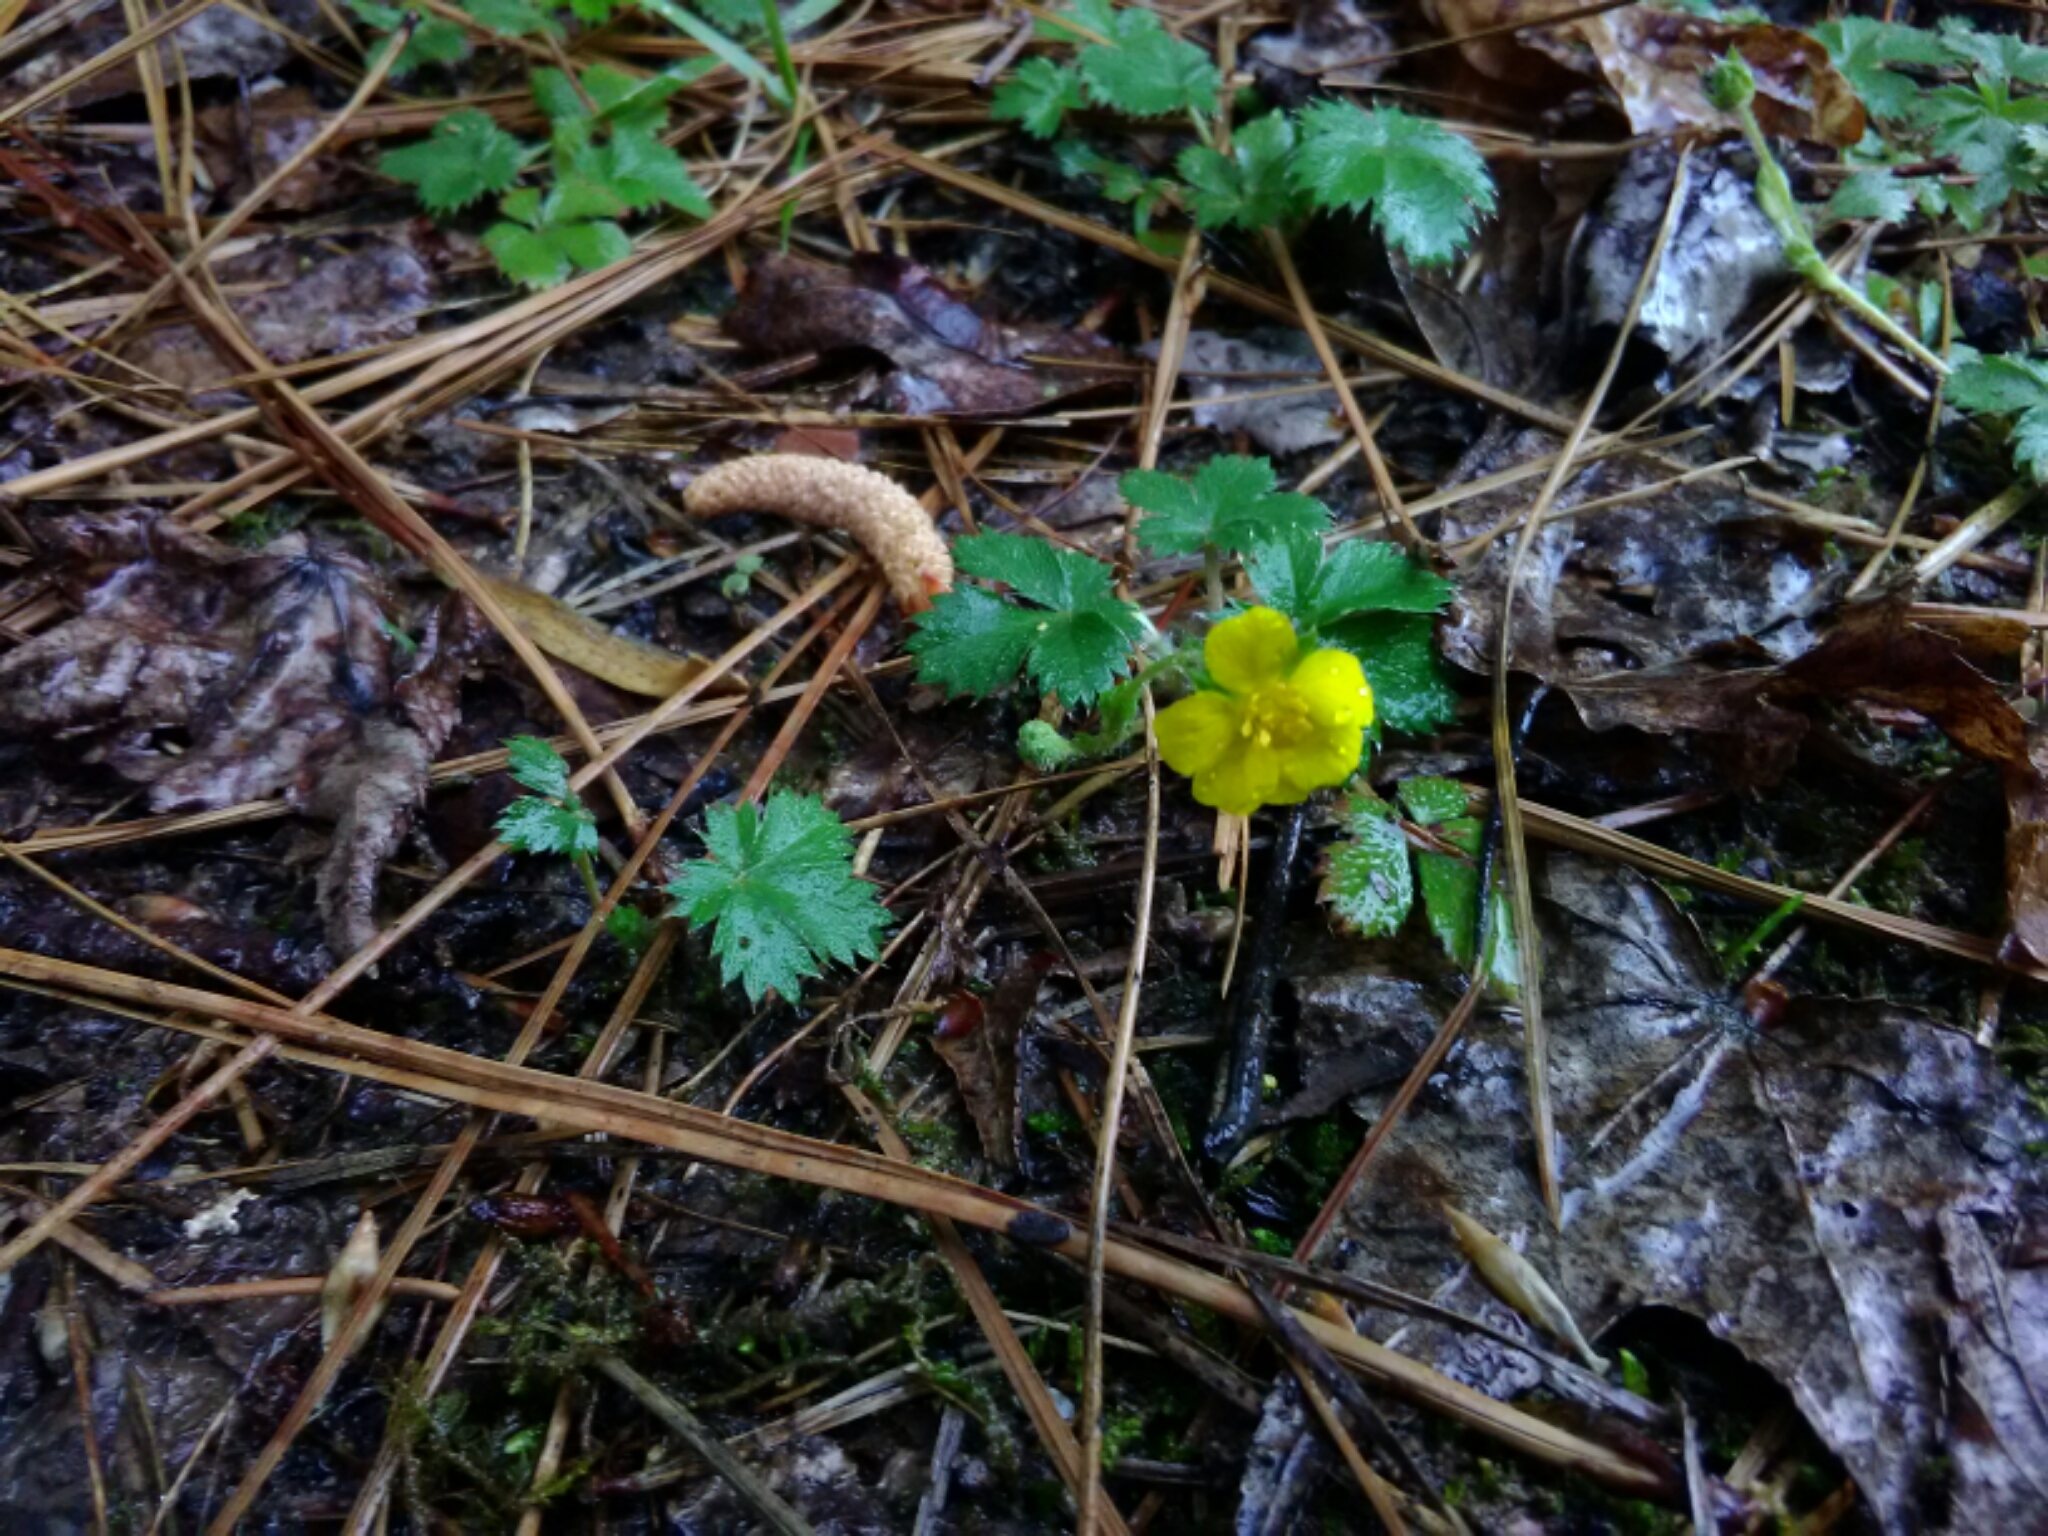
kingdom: Plantae
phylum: Tracheophyta
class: Magnoliopsida
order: Rosales
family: Rosaceae
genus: Potentilla
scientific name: Potentilla canadensis
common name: Canada cinquefoil
